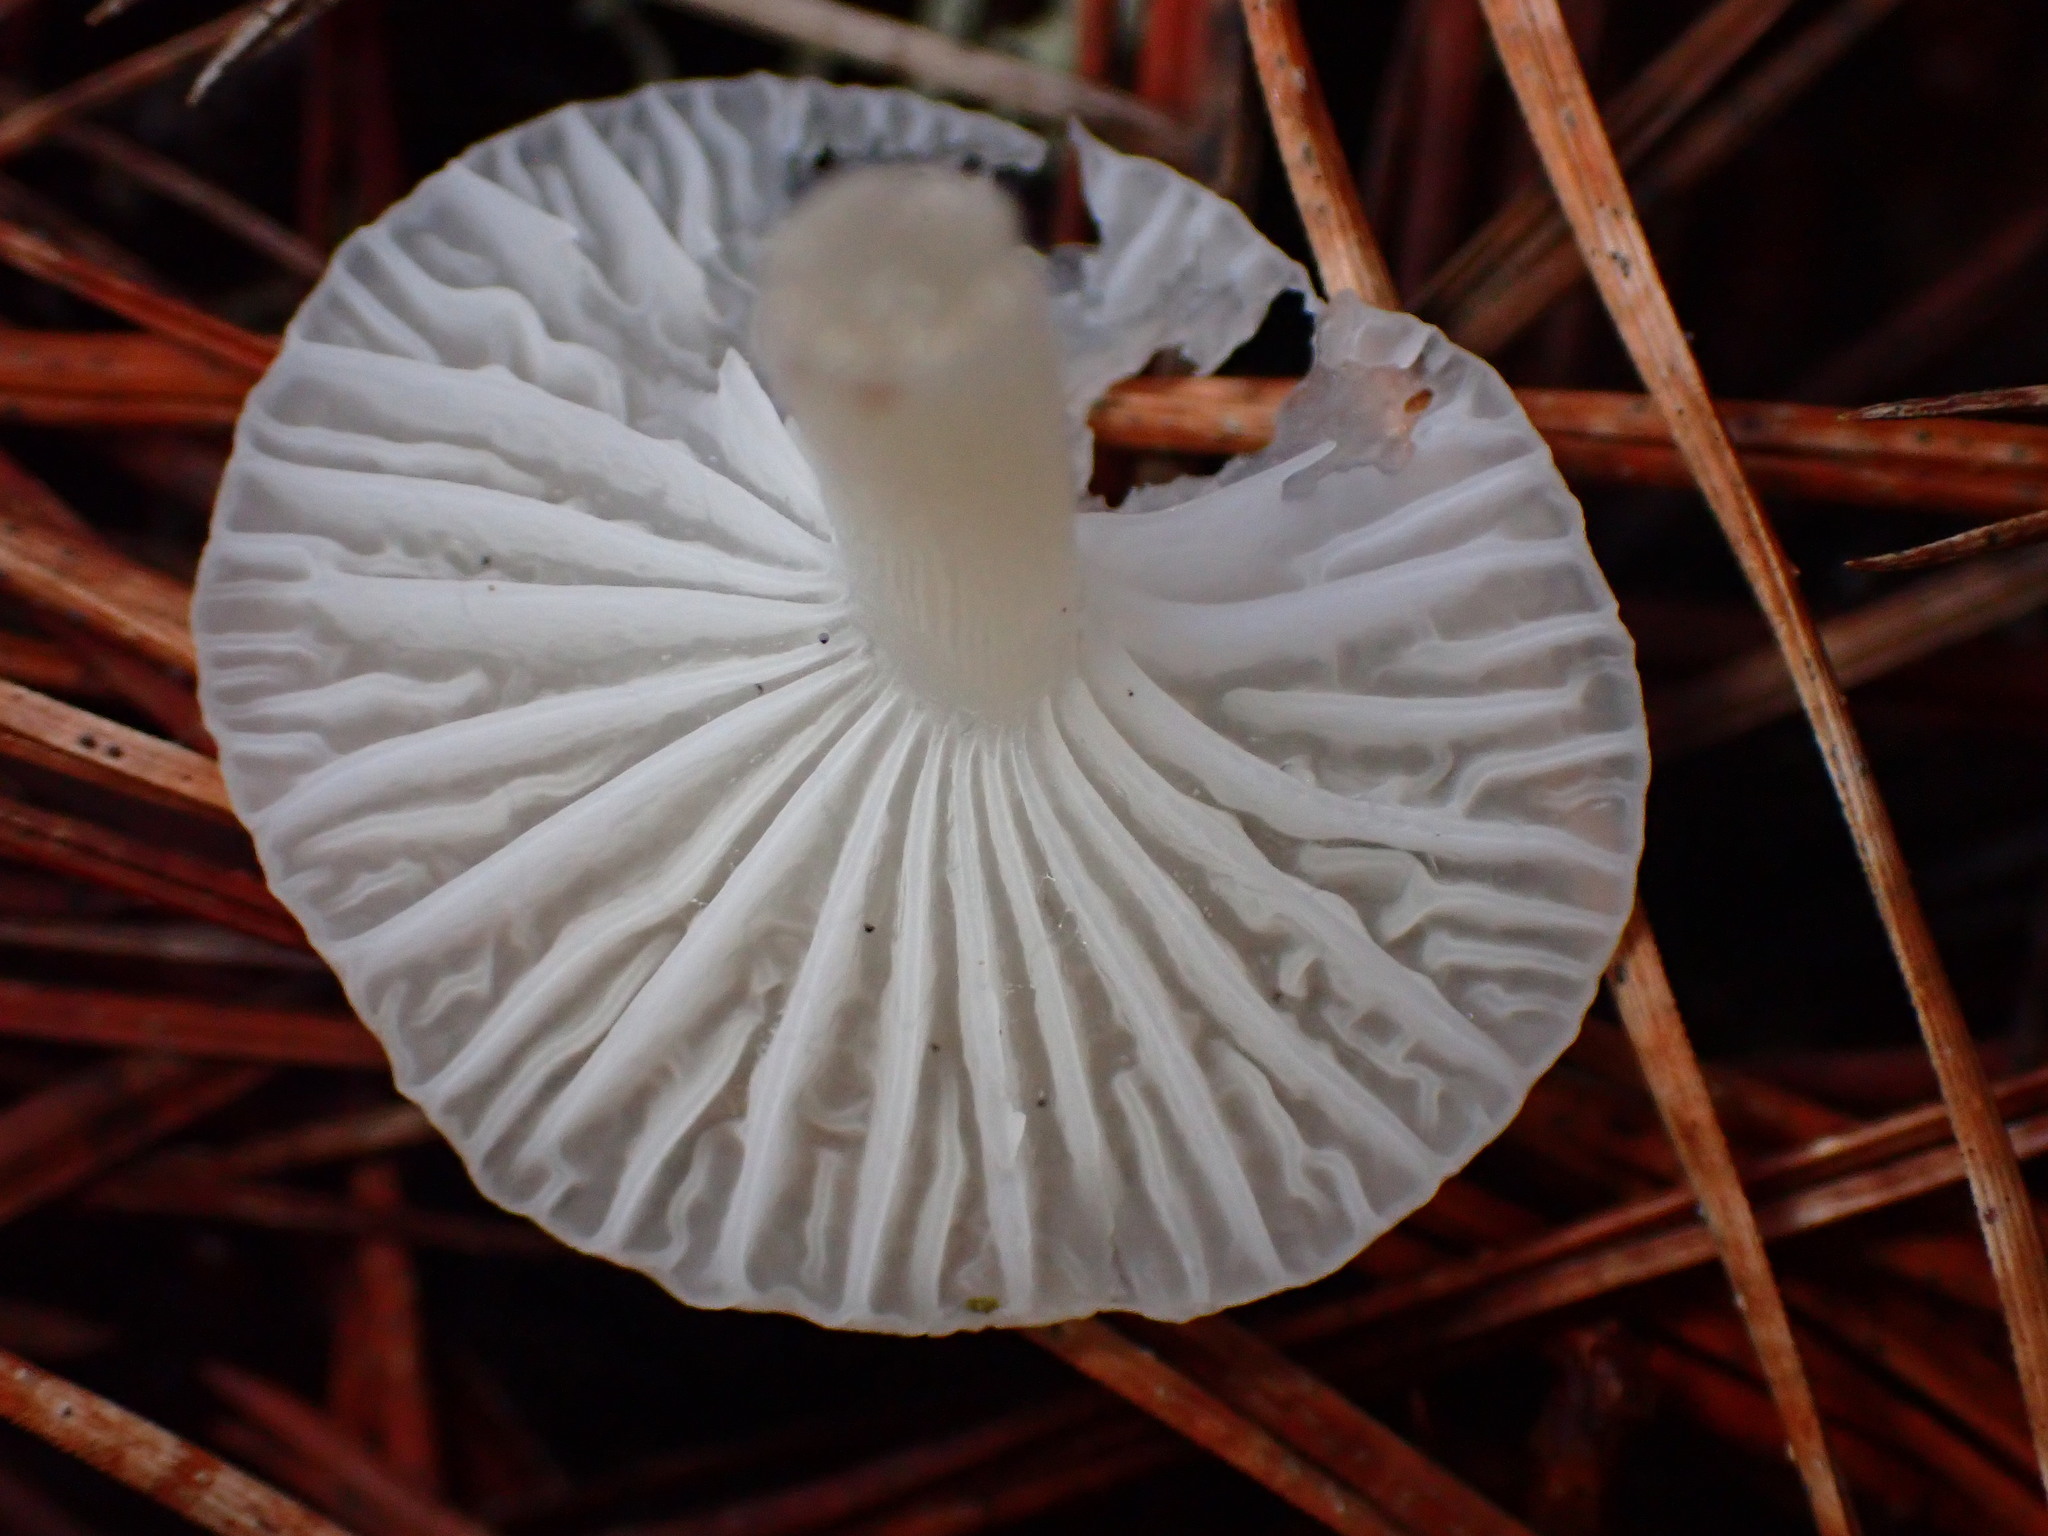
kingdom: Fungi
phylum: Basidiomycota
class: Agaricomycetes
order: Agaricales
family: Marasmiaceae
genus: Marasmius
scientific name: Marasmius calhouniae
